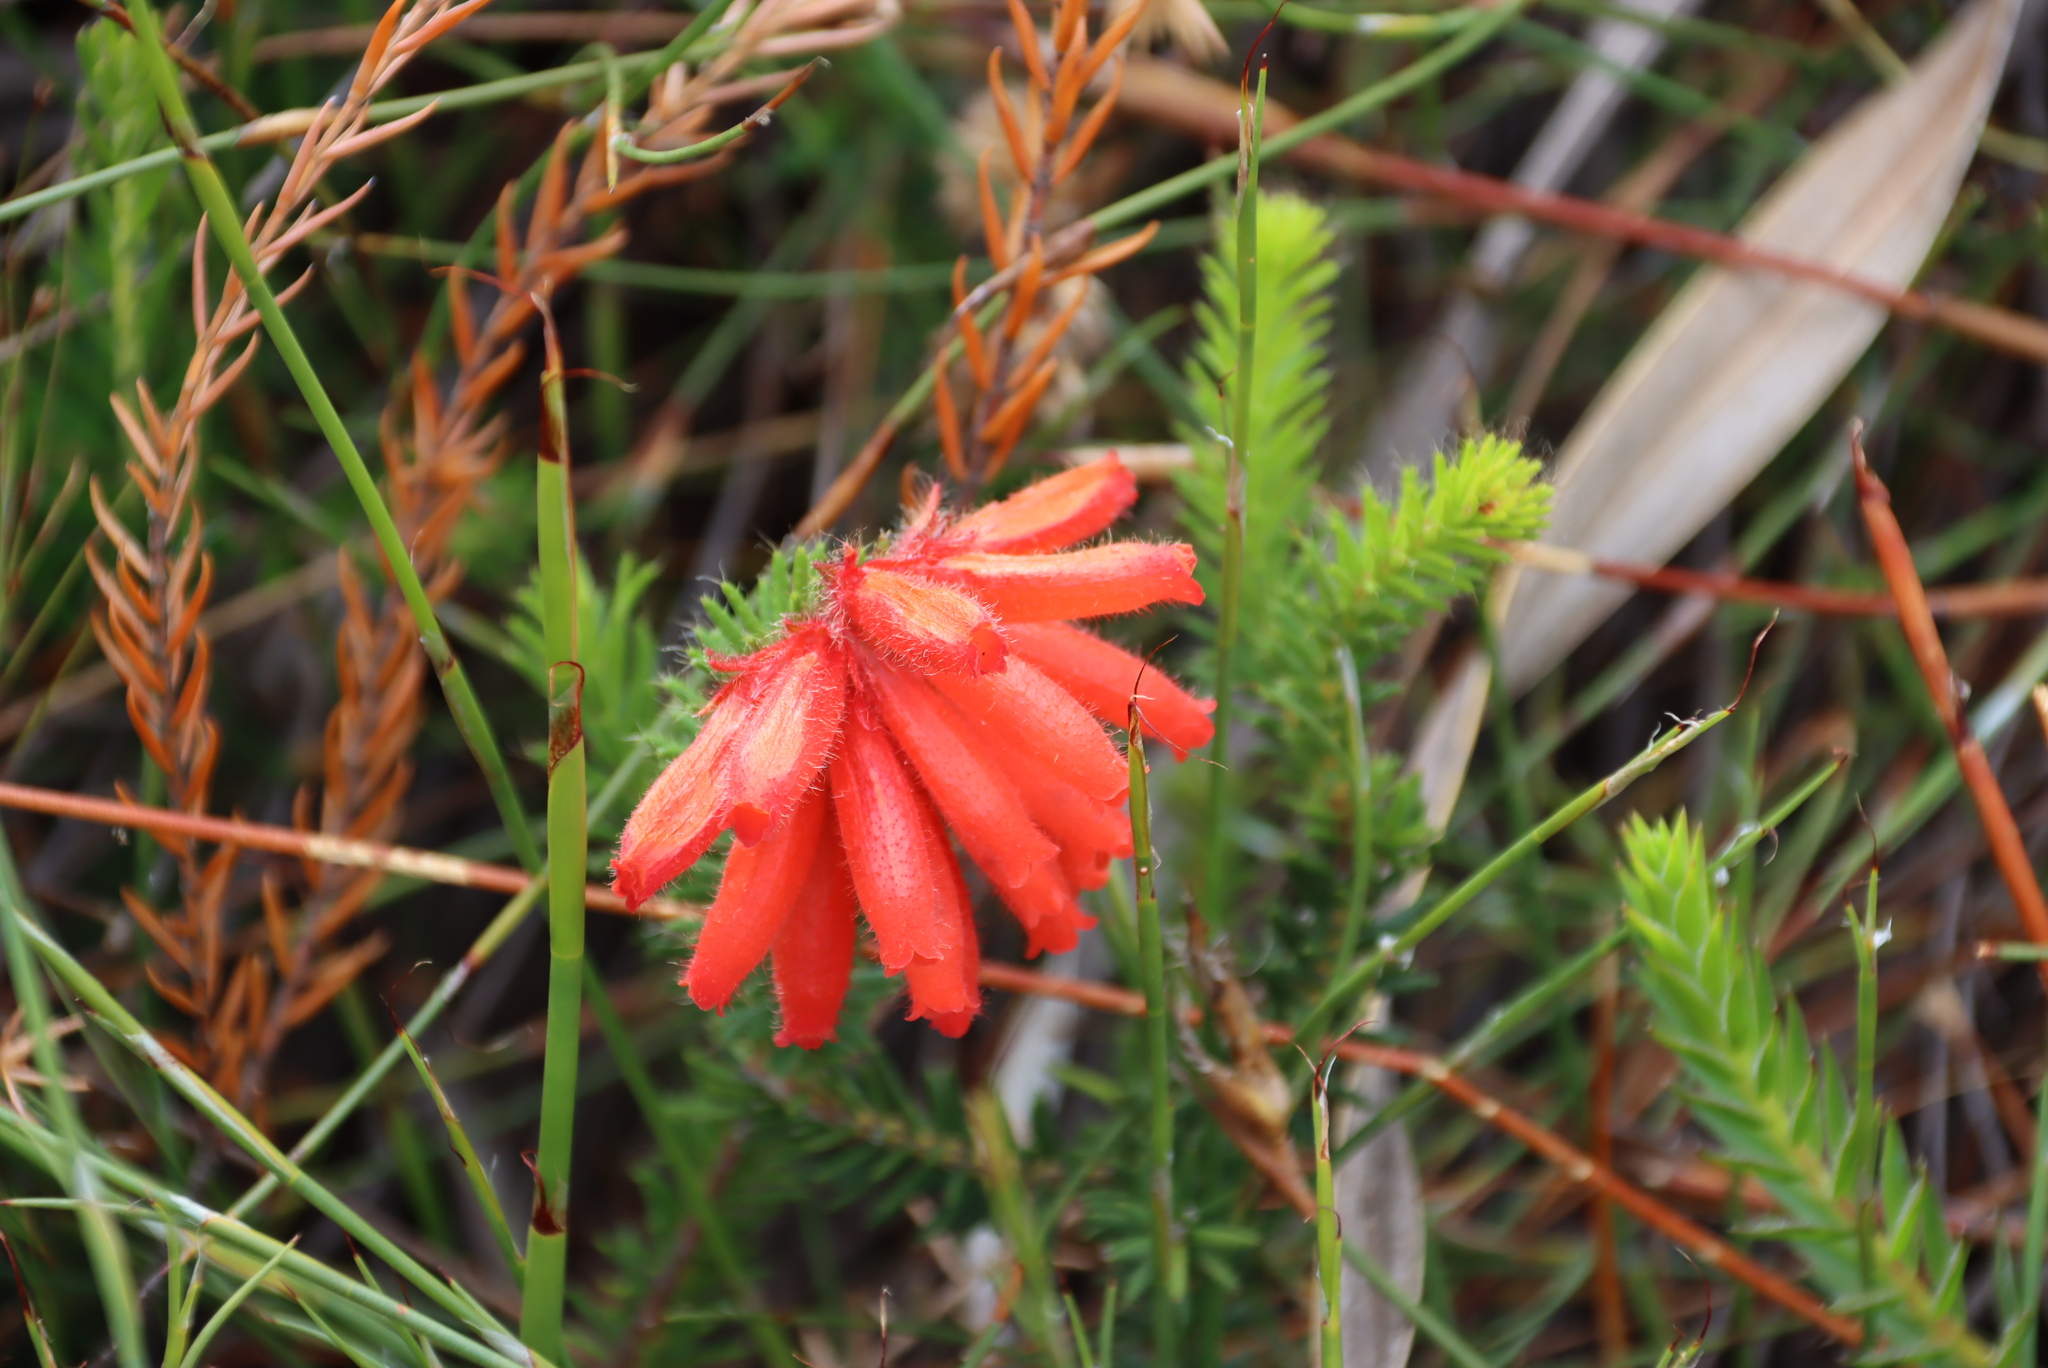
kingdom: Plantae
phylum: Tracheophyta
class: Magnoliopsida
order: Ericales
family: Ericaceae
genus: Erica
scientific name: Erica cerinthoides
